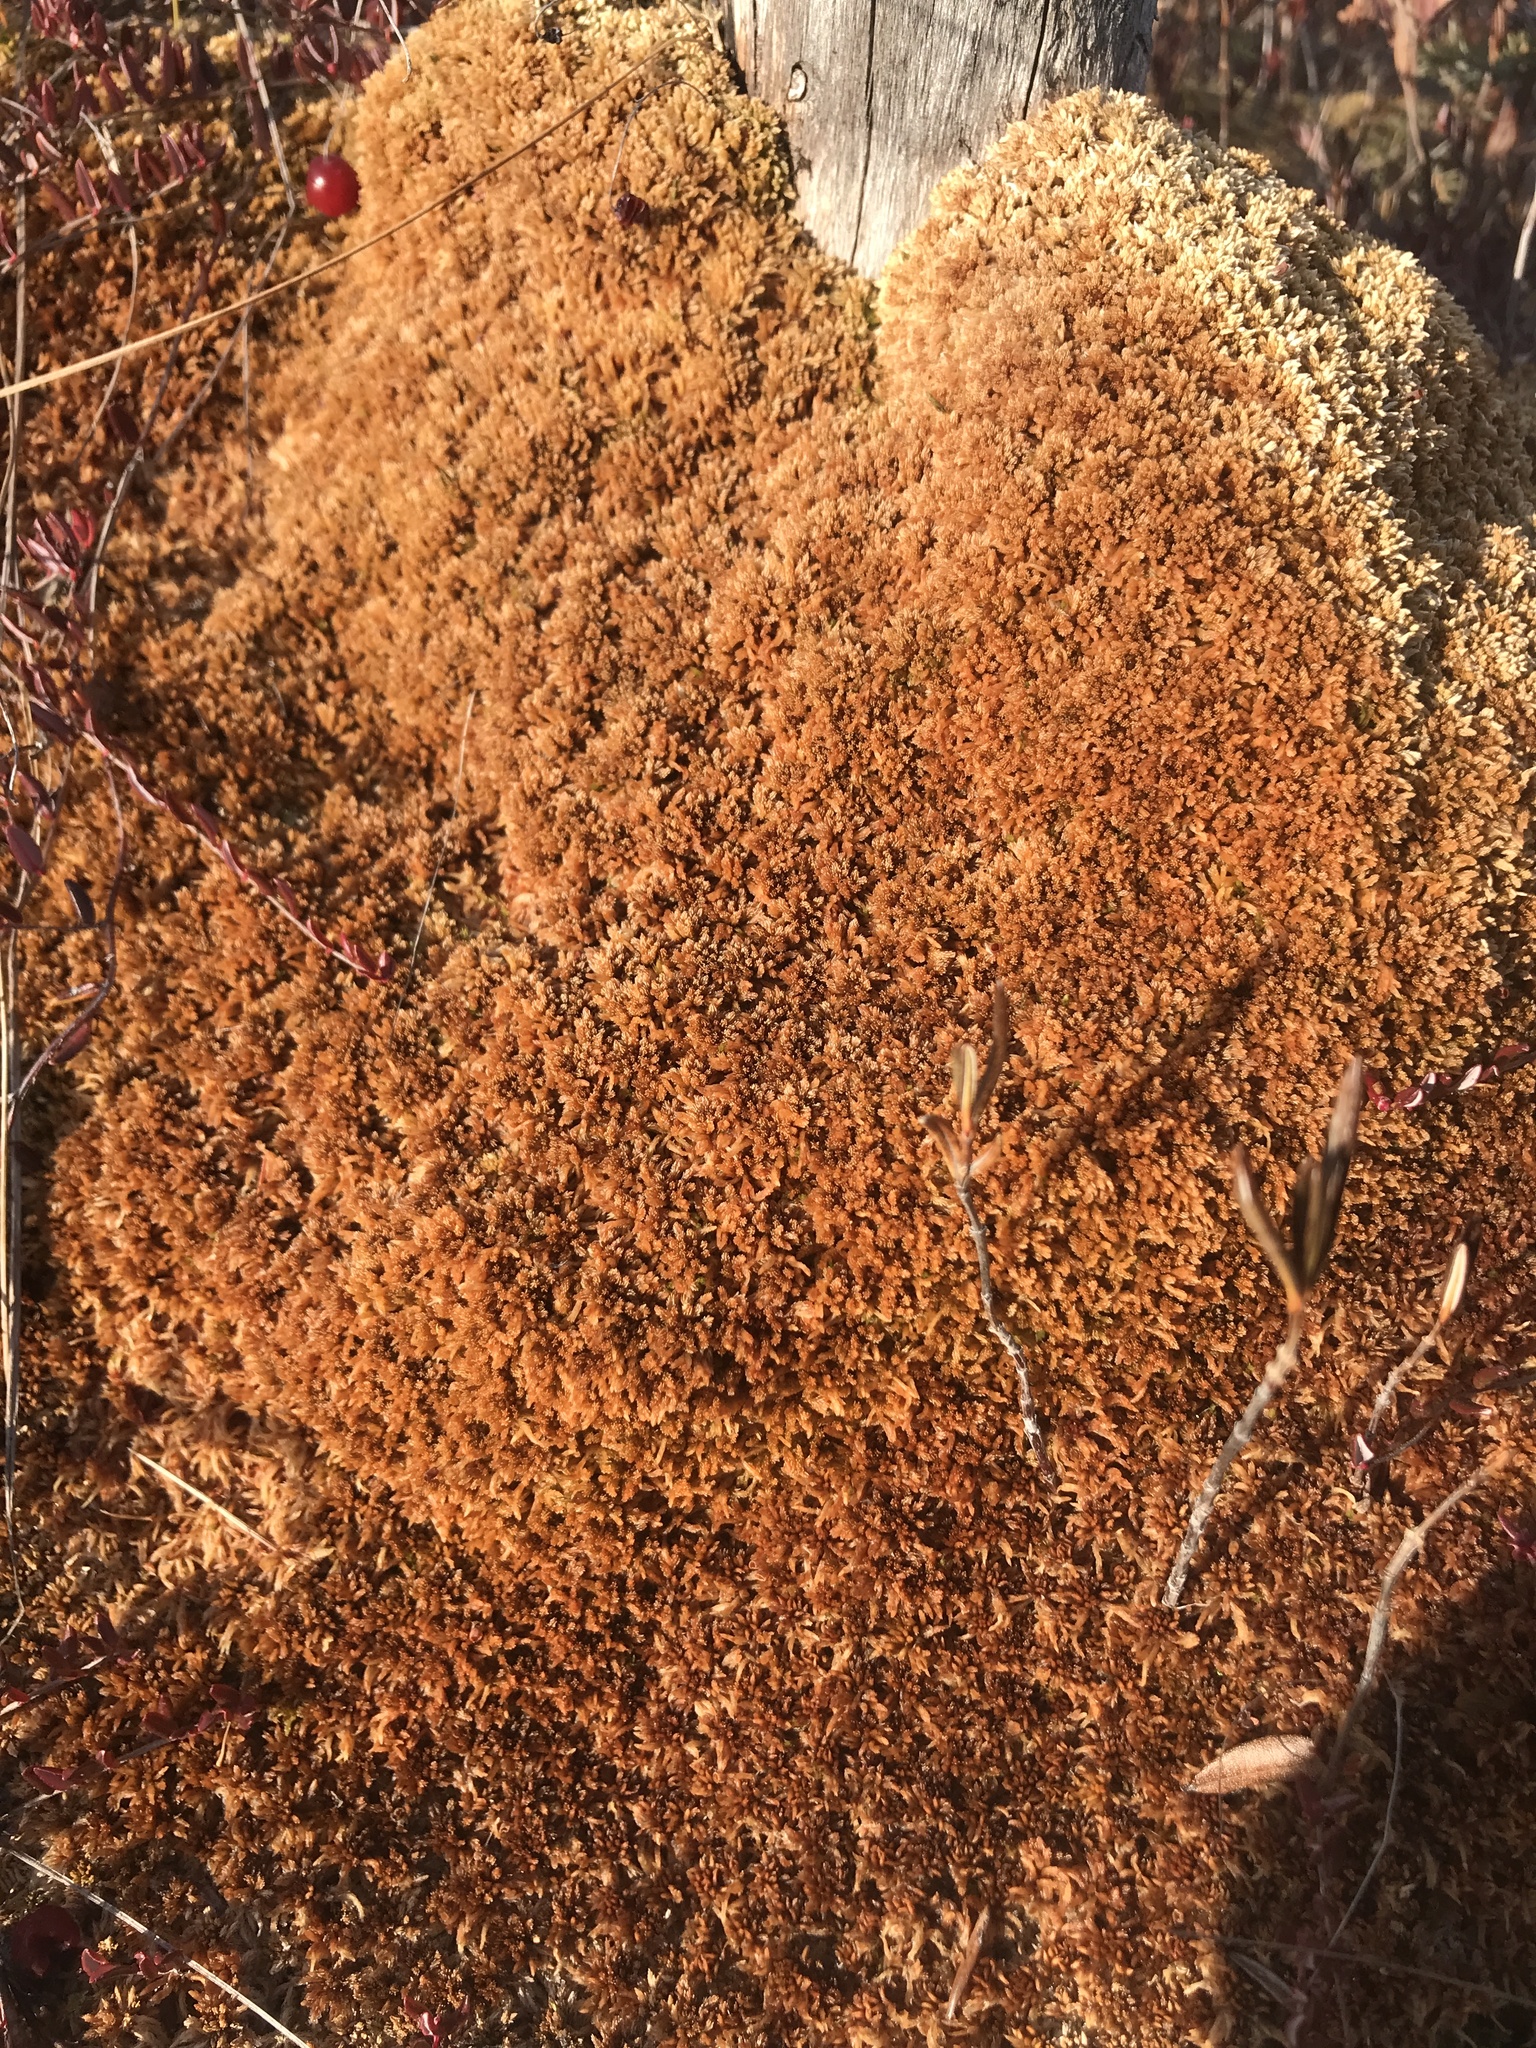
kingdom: Plantae
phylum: Bryophyta
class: Sphagnopsida
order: Sphagnales
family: Sphagnaceae
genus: Sphagnum
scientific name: Sphagnum fuscum
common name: Brown peat moss
